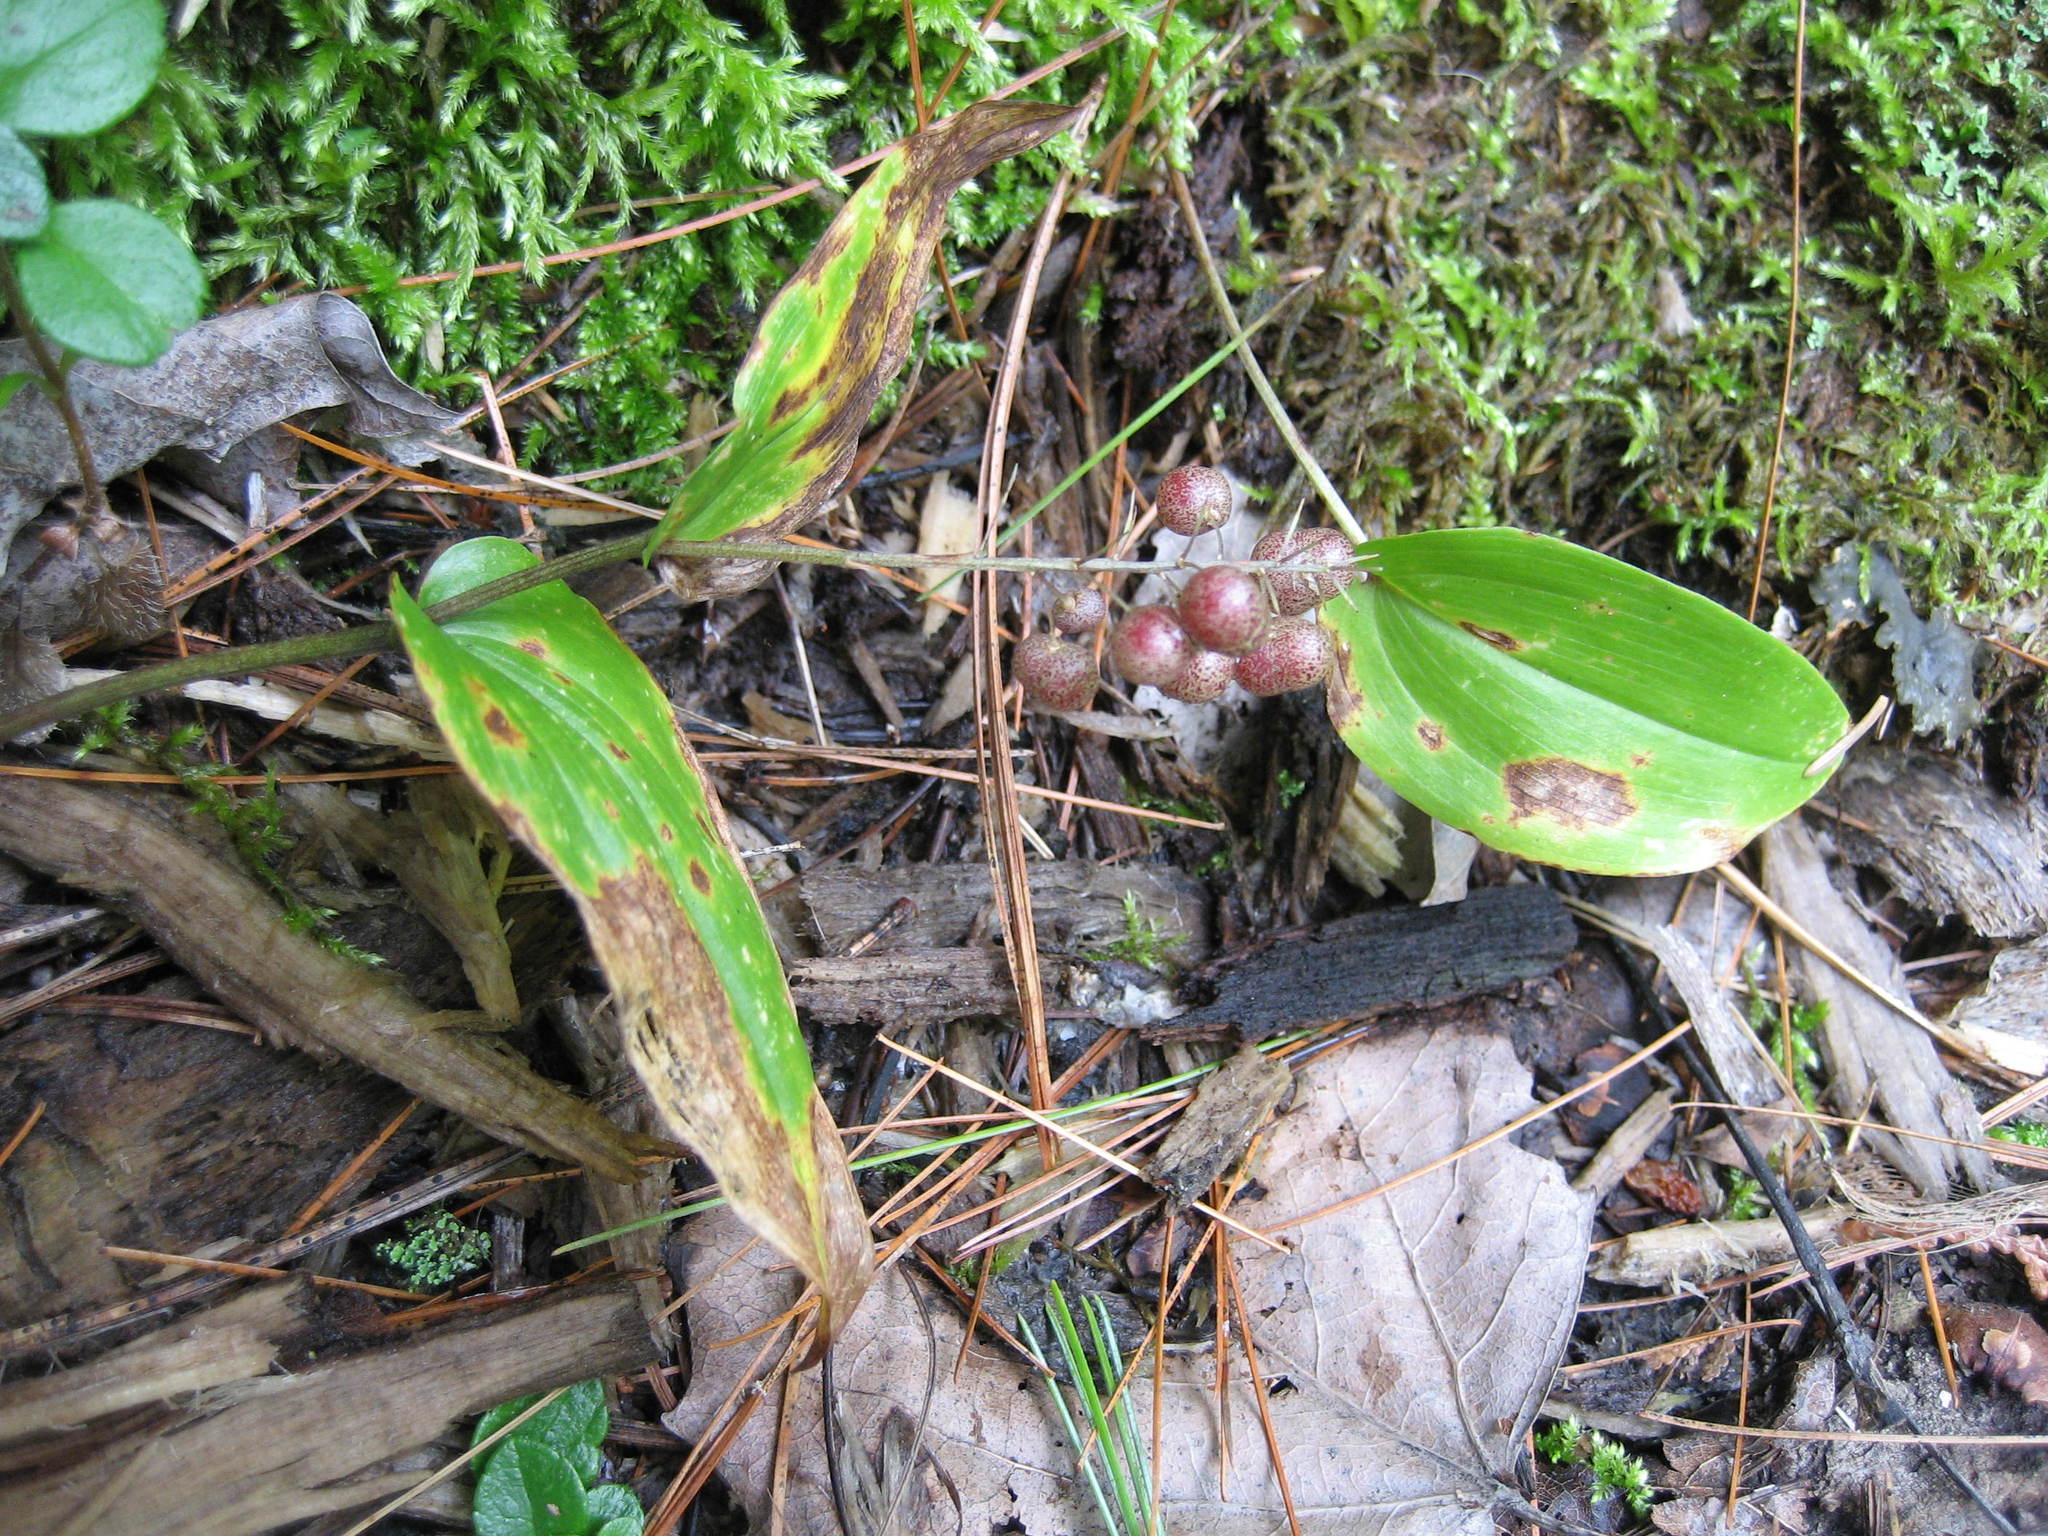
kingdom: Plantae
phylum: Tracheophyta
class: Liliopsida
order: Asparagales
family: Asparagaceae
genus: Maianthemum
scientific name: Maianthemum canadense
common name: False lily-of-the-valley
